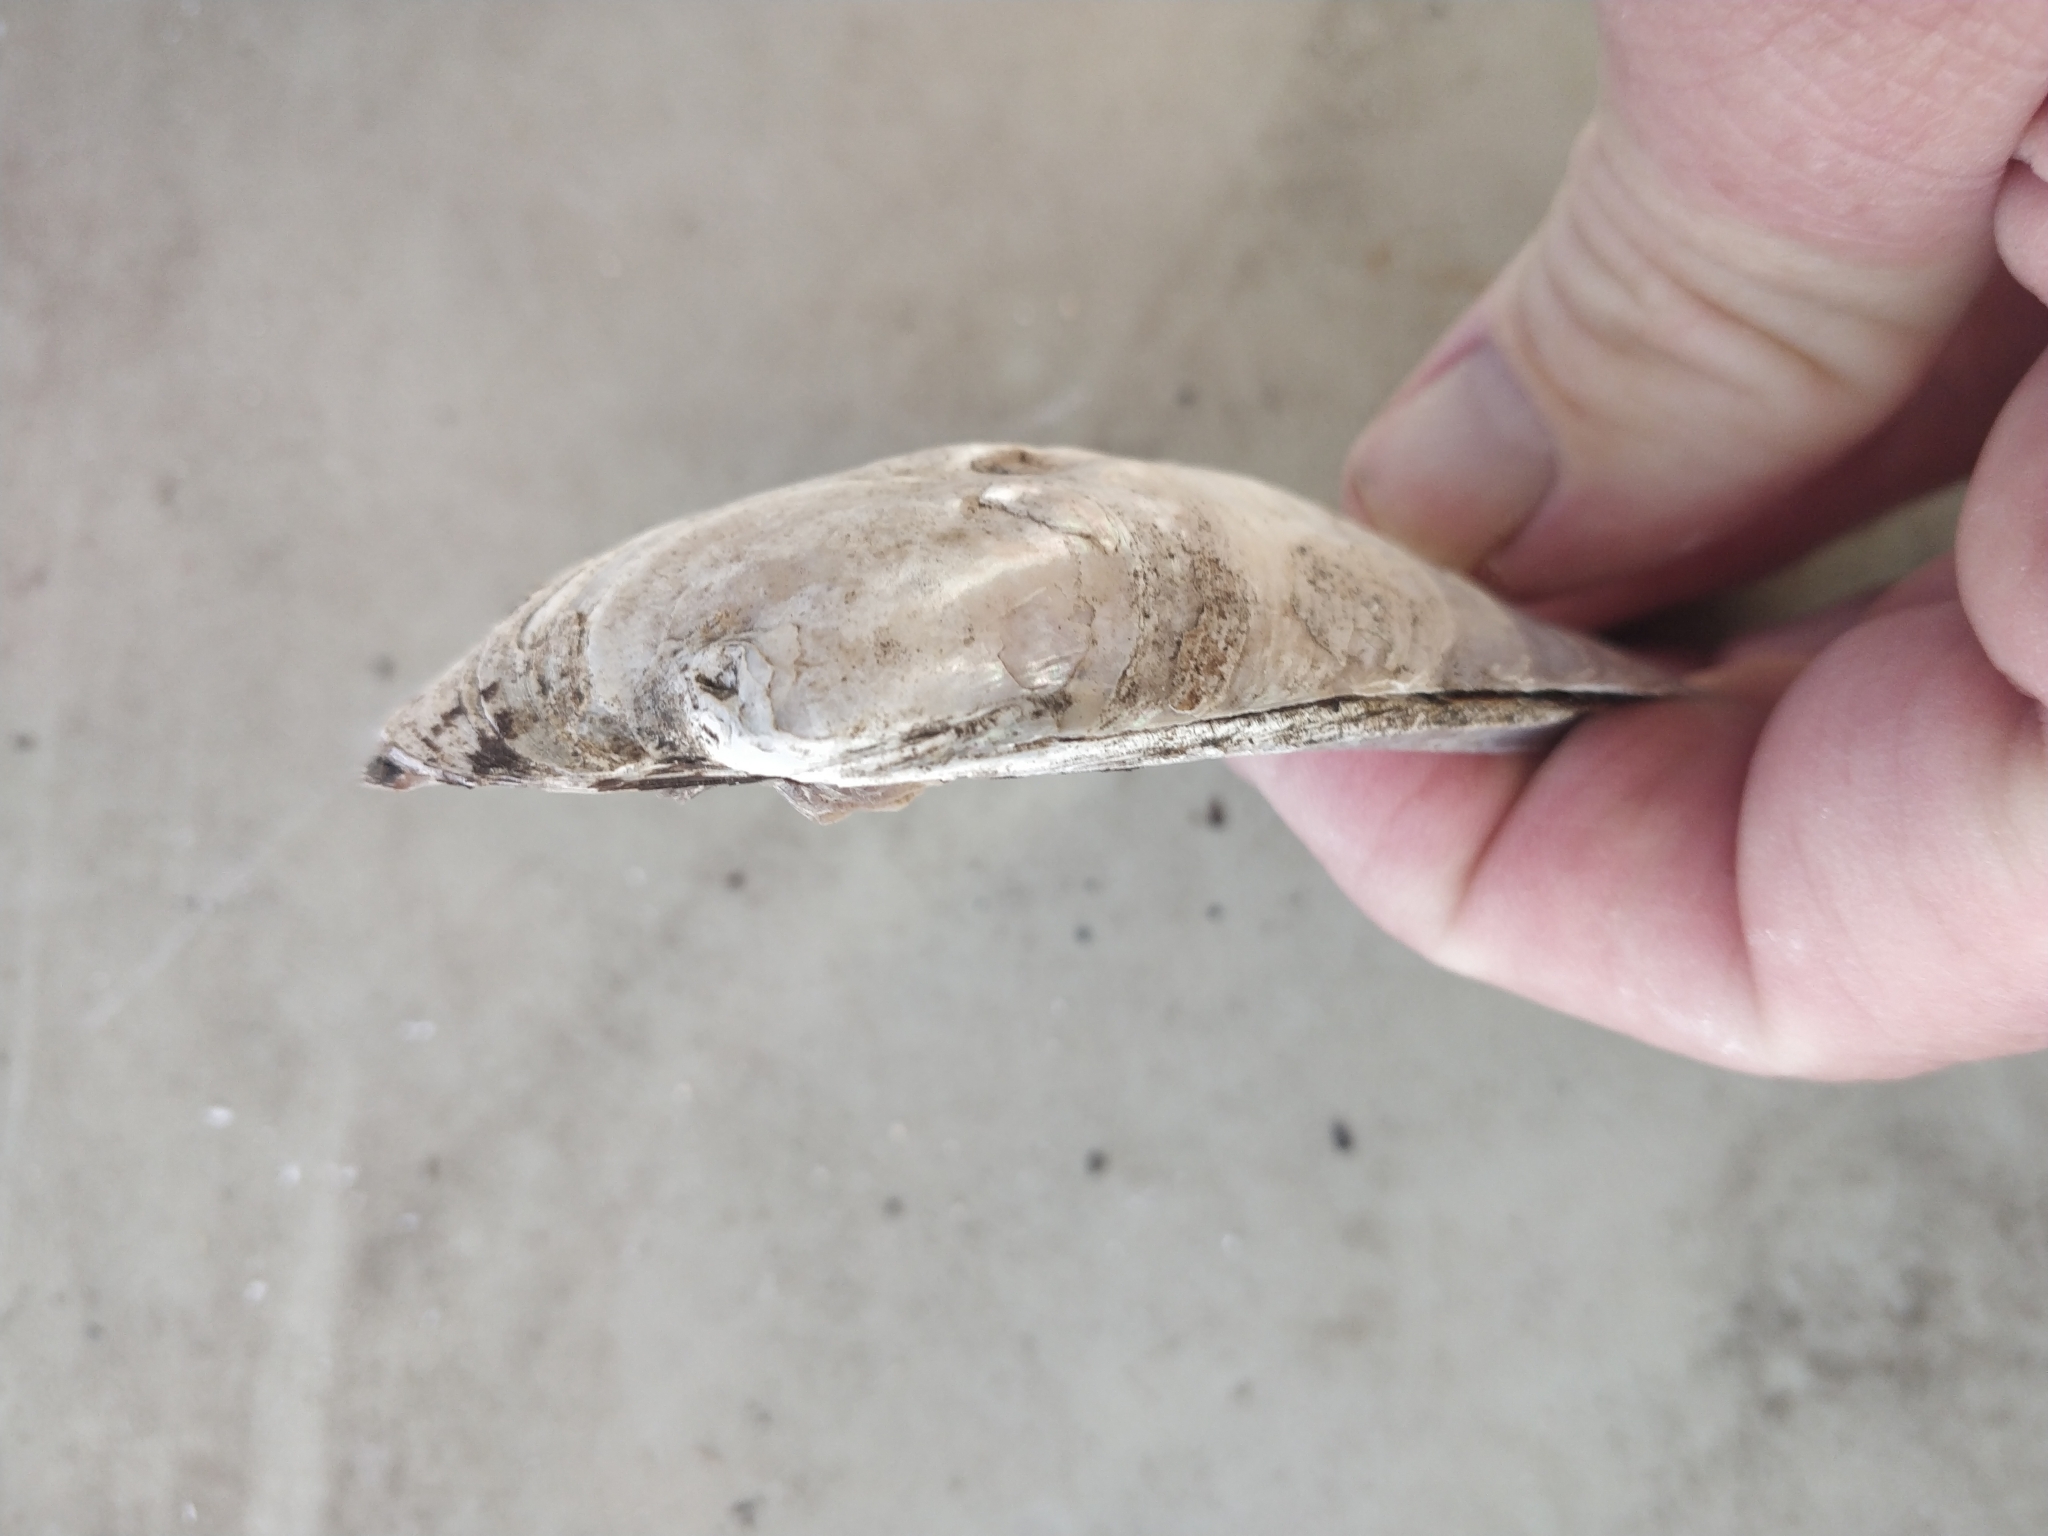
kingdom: Animalia
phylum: Mollusca
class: Bivalvia
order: Unionida
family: Unionidae
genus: Amblema
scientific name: Amblema plicata
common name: Threeridge
